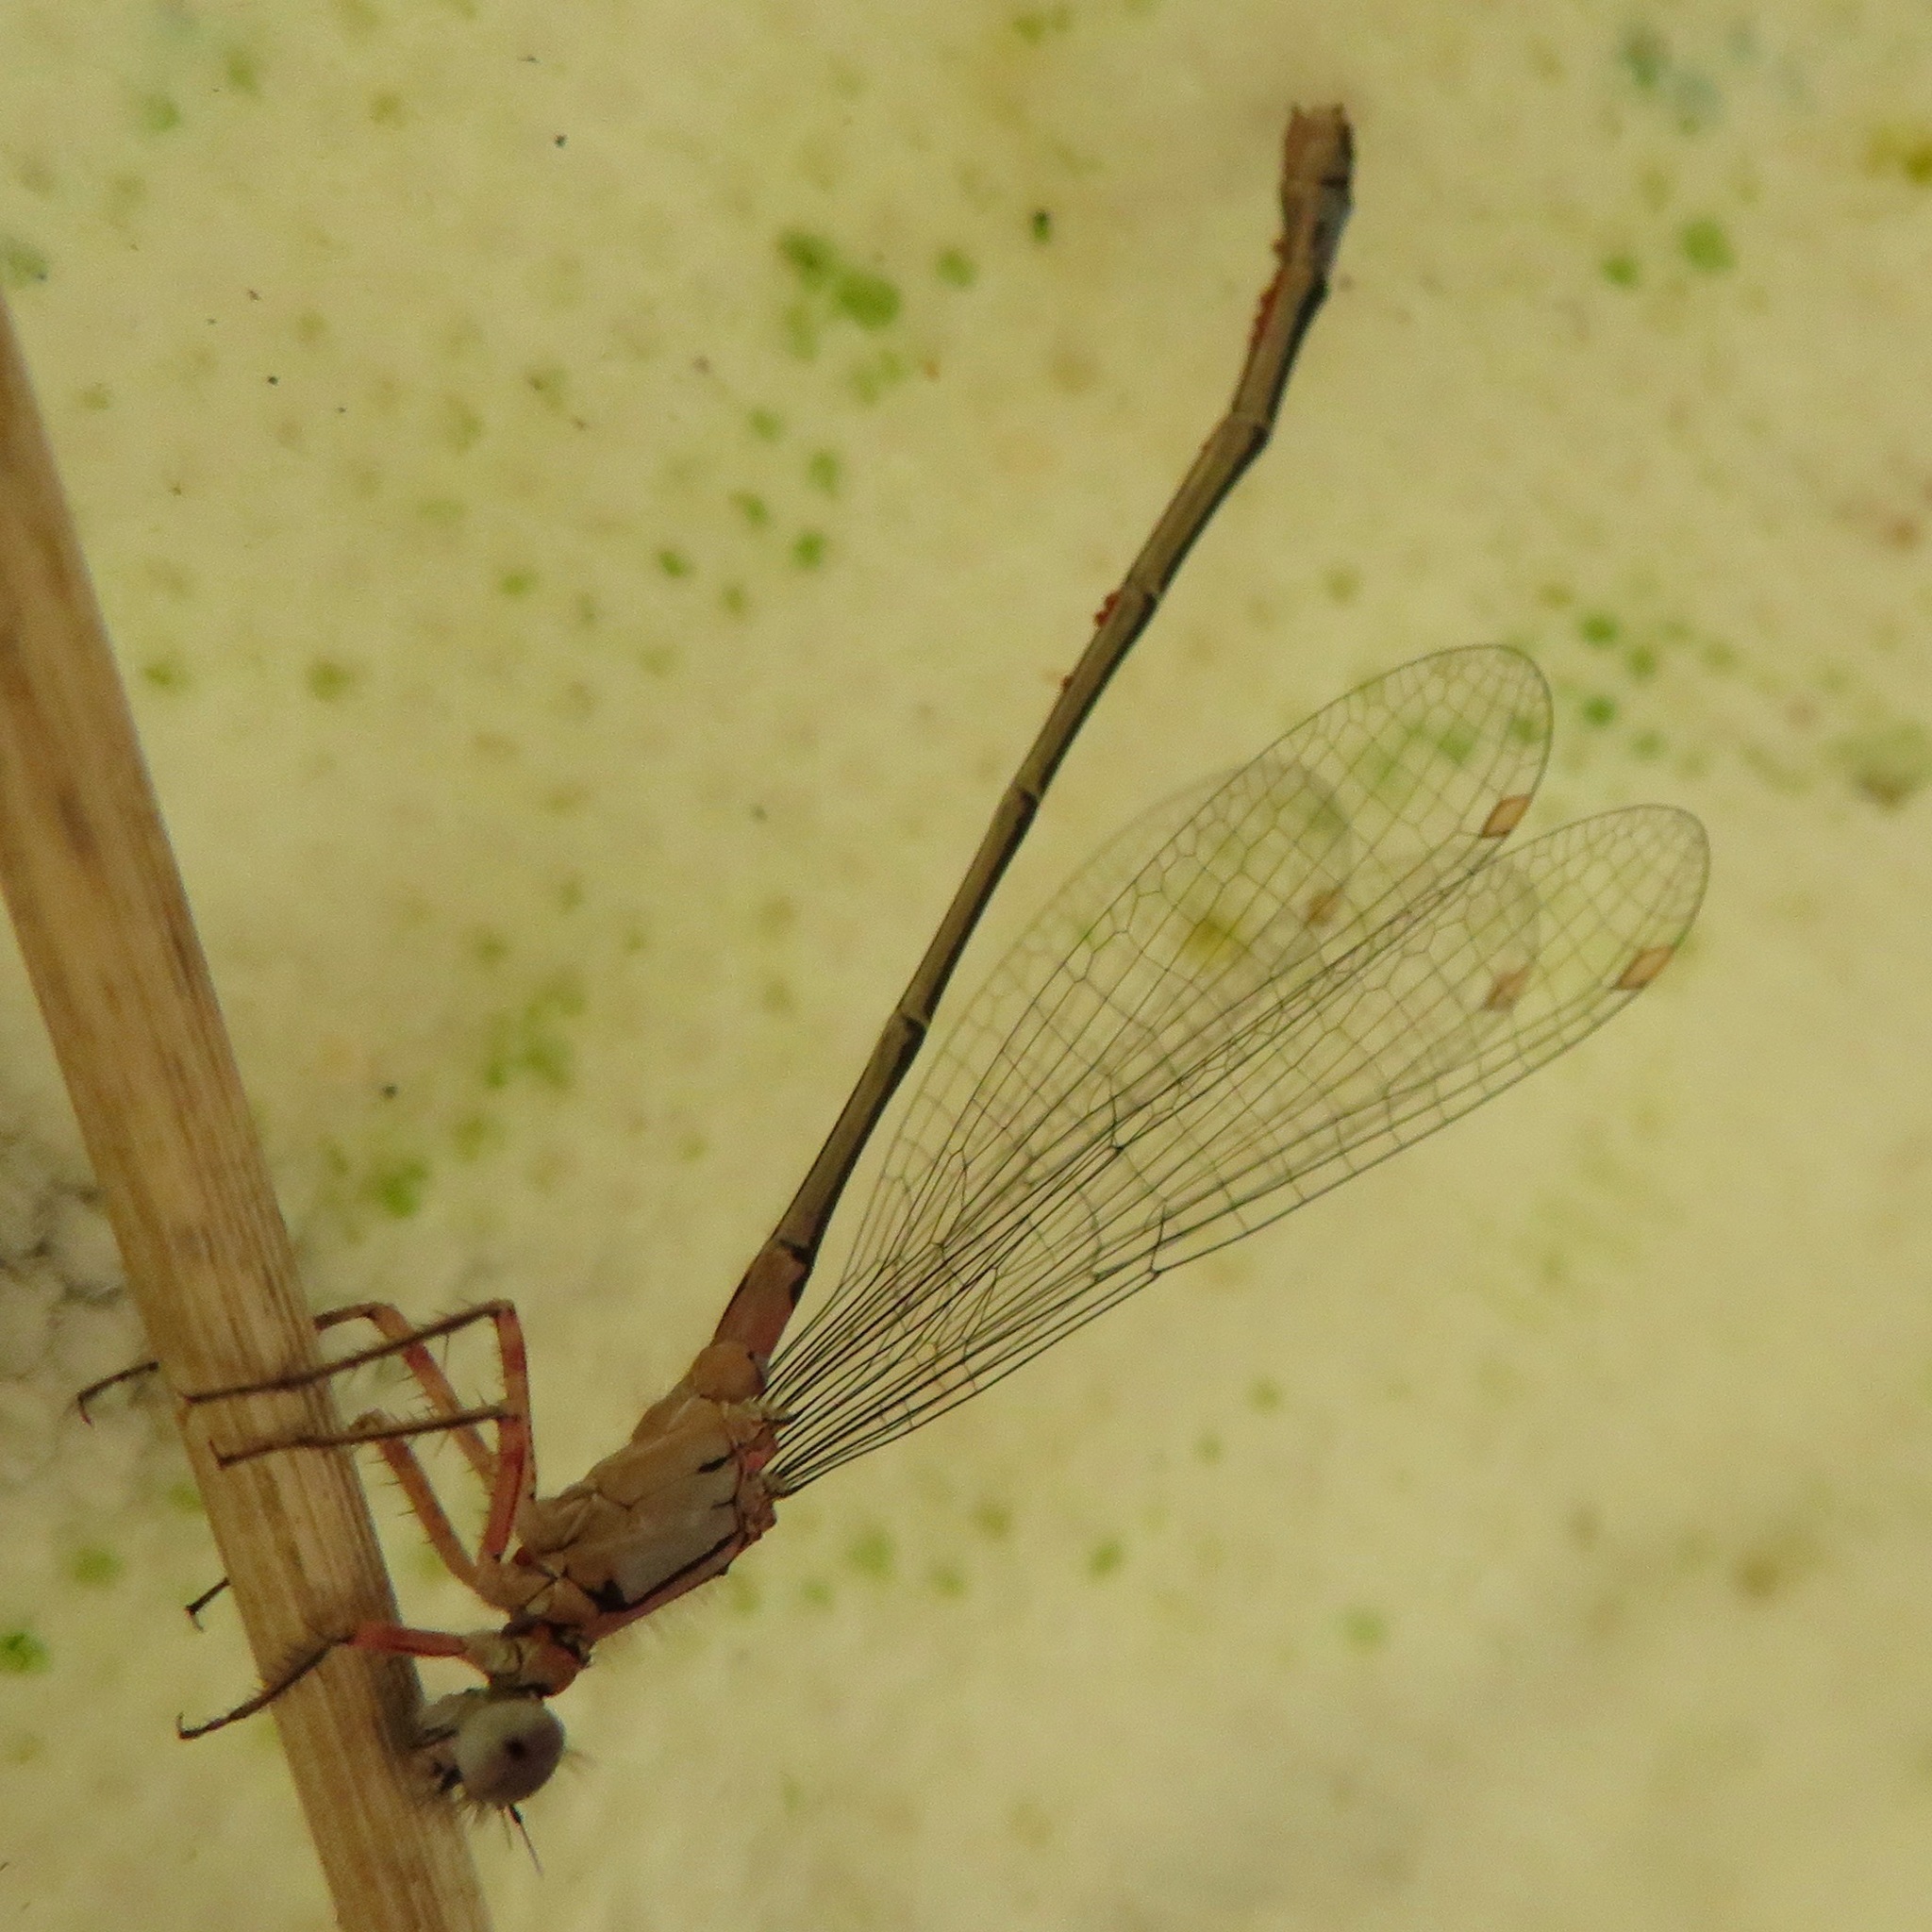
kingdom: Animalia
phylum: Arthropoda
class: Insecta
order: Odonata
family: Coenagrionidae
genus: Ischnura
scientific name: Ischnura cervula
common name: Pacific forktail
